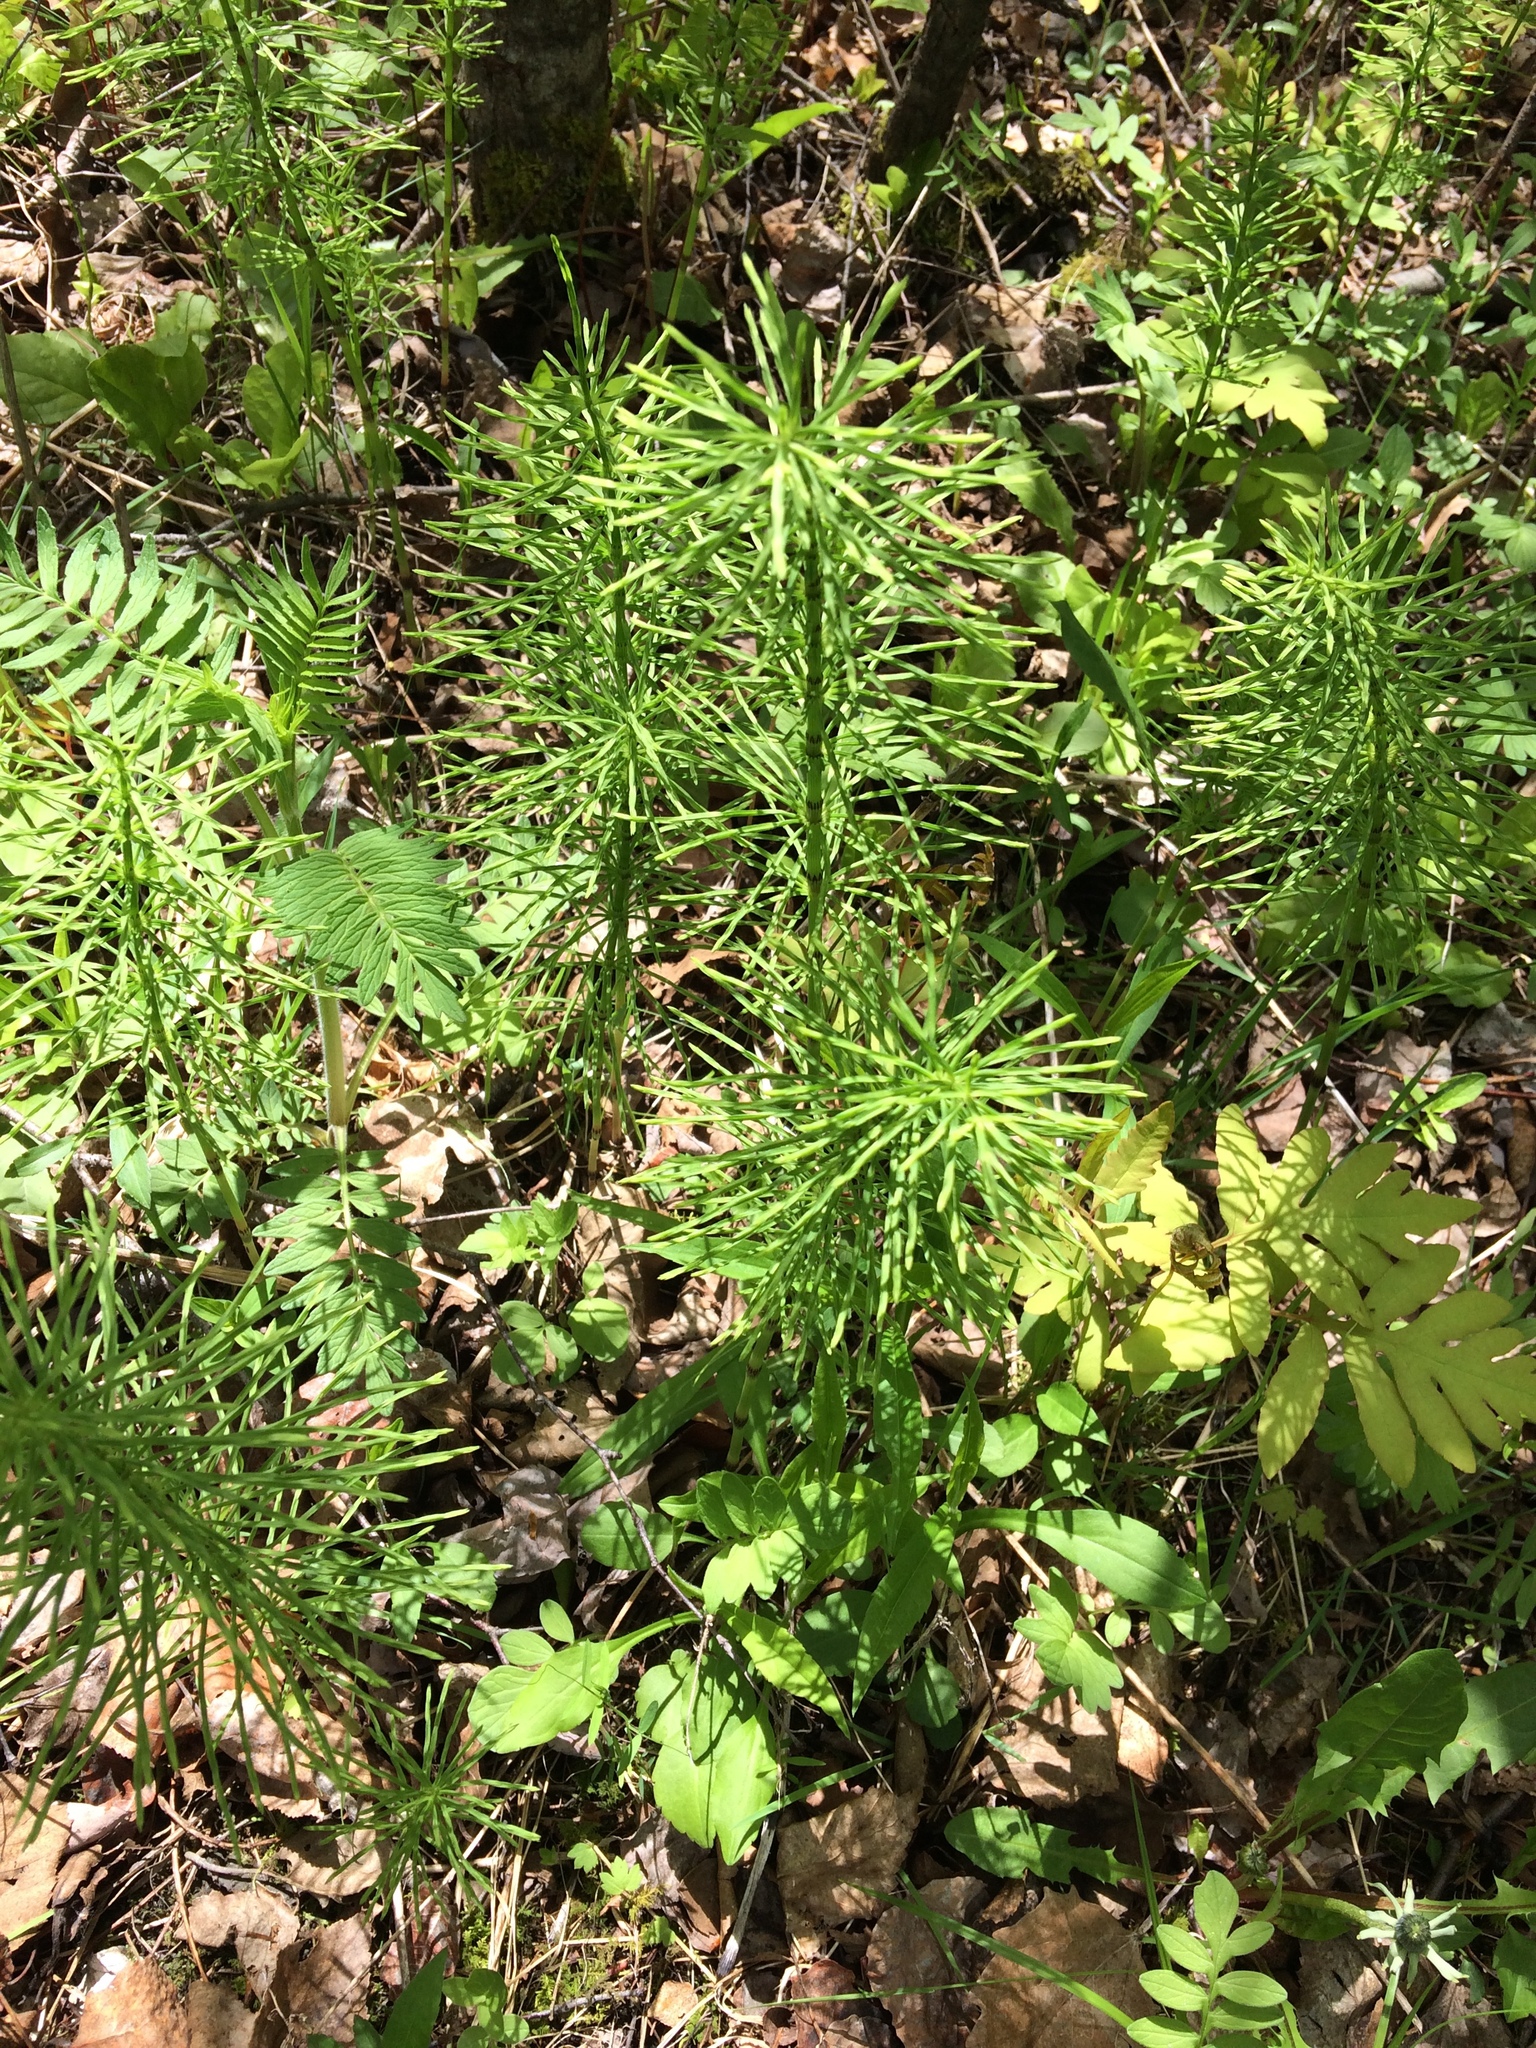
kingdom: Plantae
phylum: Tracheophyta
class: Polypodiopsida
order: Equisetales
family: Equisetaceae
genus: Equisetum
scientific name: Equisetum arvense
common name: Field horsetail
